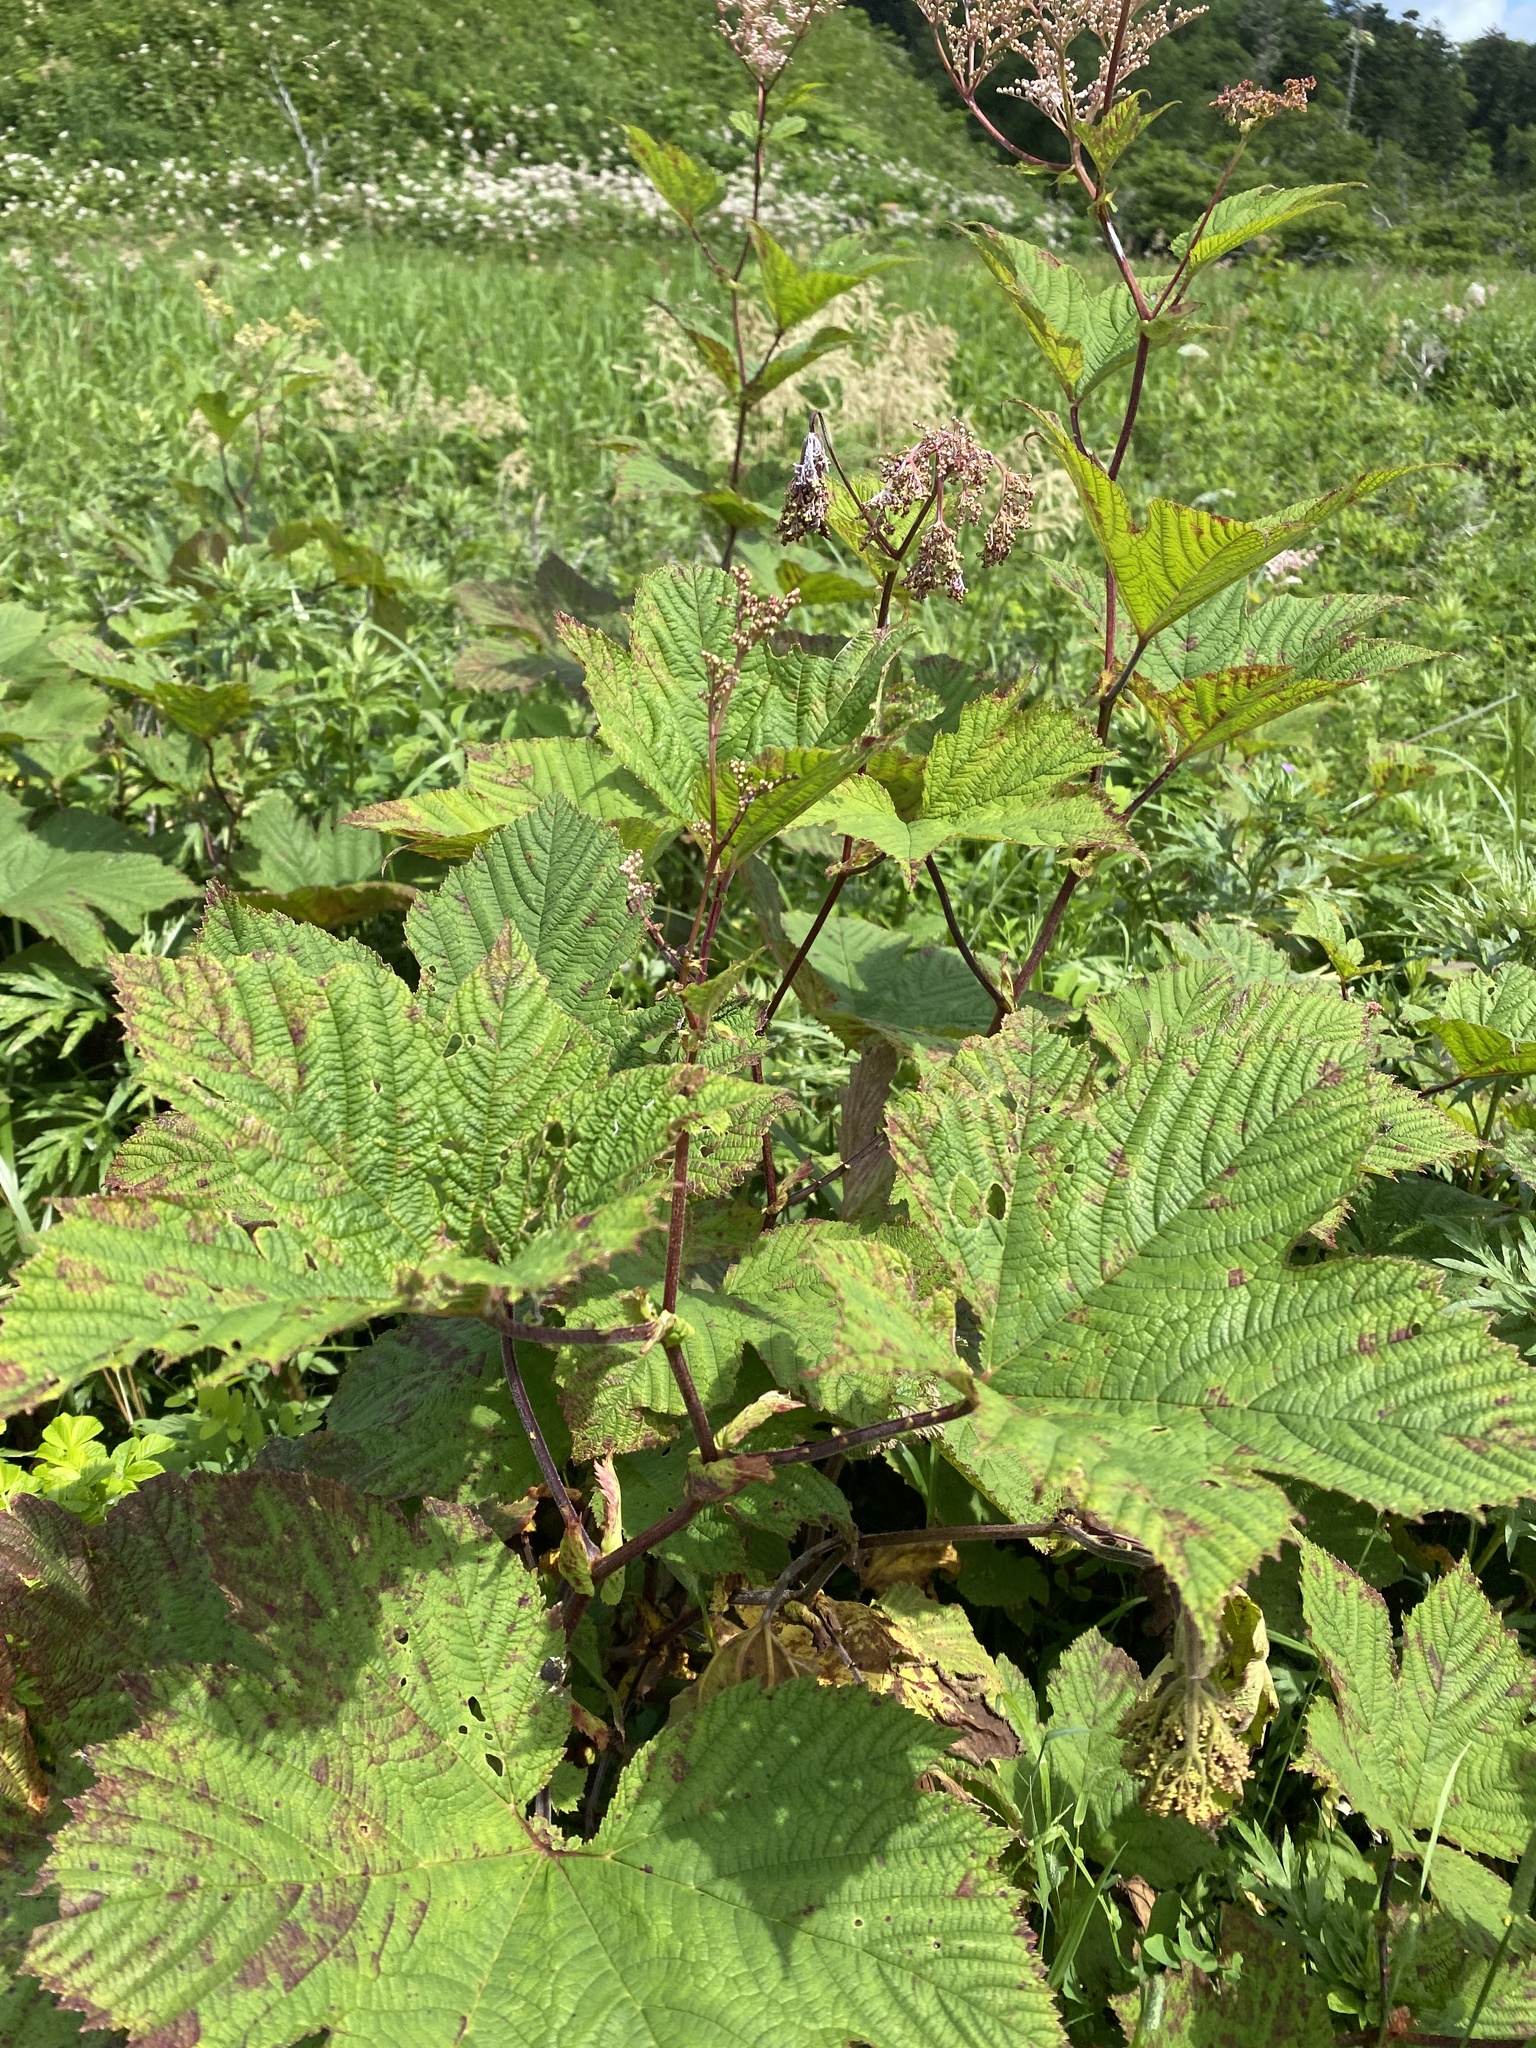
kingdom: Plantae
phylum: Tracheophyta
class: Magnoliopsida
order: Rosales
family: Rosaceae
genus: Filipendula
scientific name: Filipendula camtschatica
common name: Giant meadowsweet
